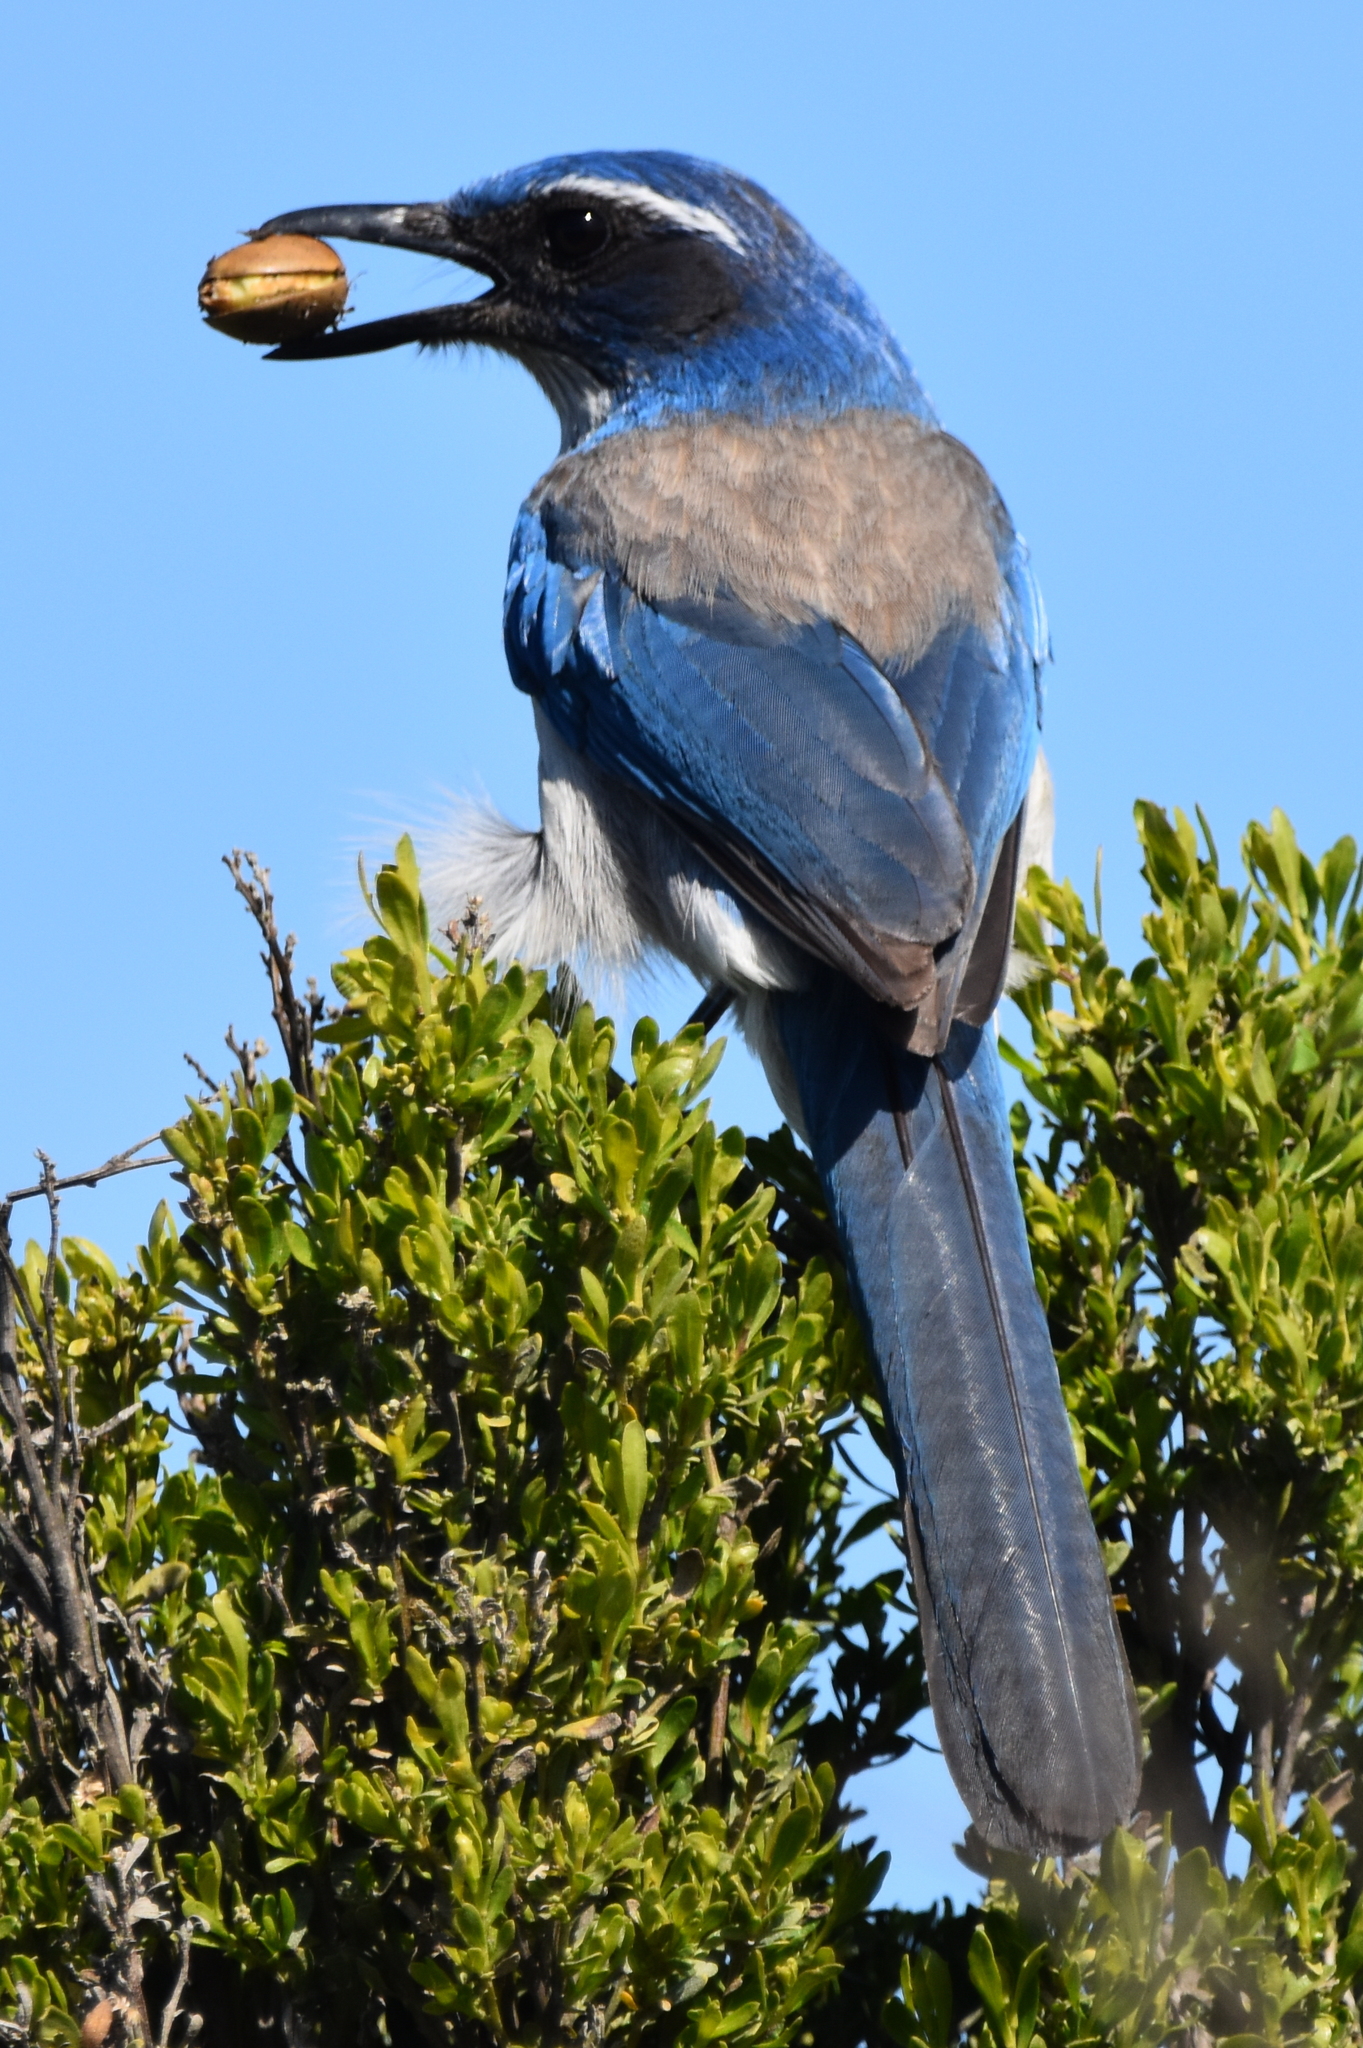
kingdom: Animalia
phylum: Chordata
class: Aves
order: Passeriformes
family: Corvidae
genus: Aphelocoma
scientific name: Aphelocoma californica
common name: California scrub-jay
